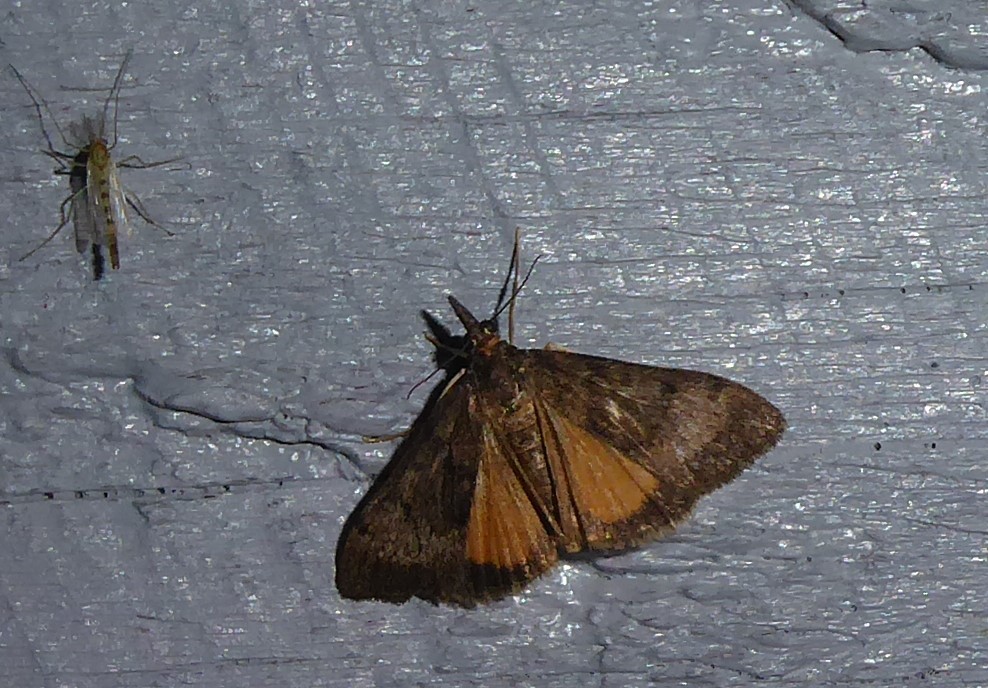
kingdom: Animalia
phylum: Arthropoda
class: Insecta
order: Lepidoptera
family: Crambidae
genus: Uresiphita
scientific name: Uresiphita
